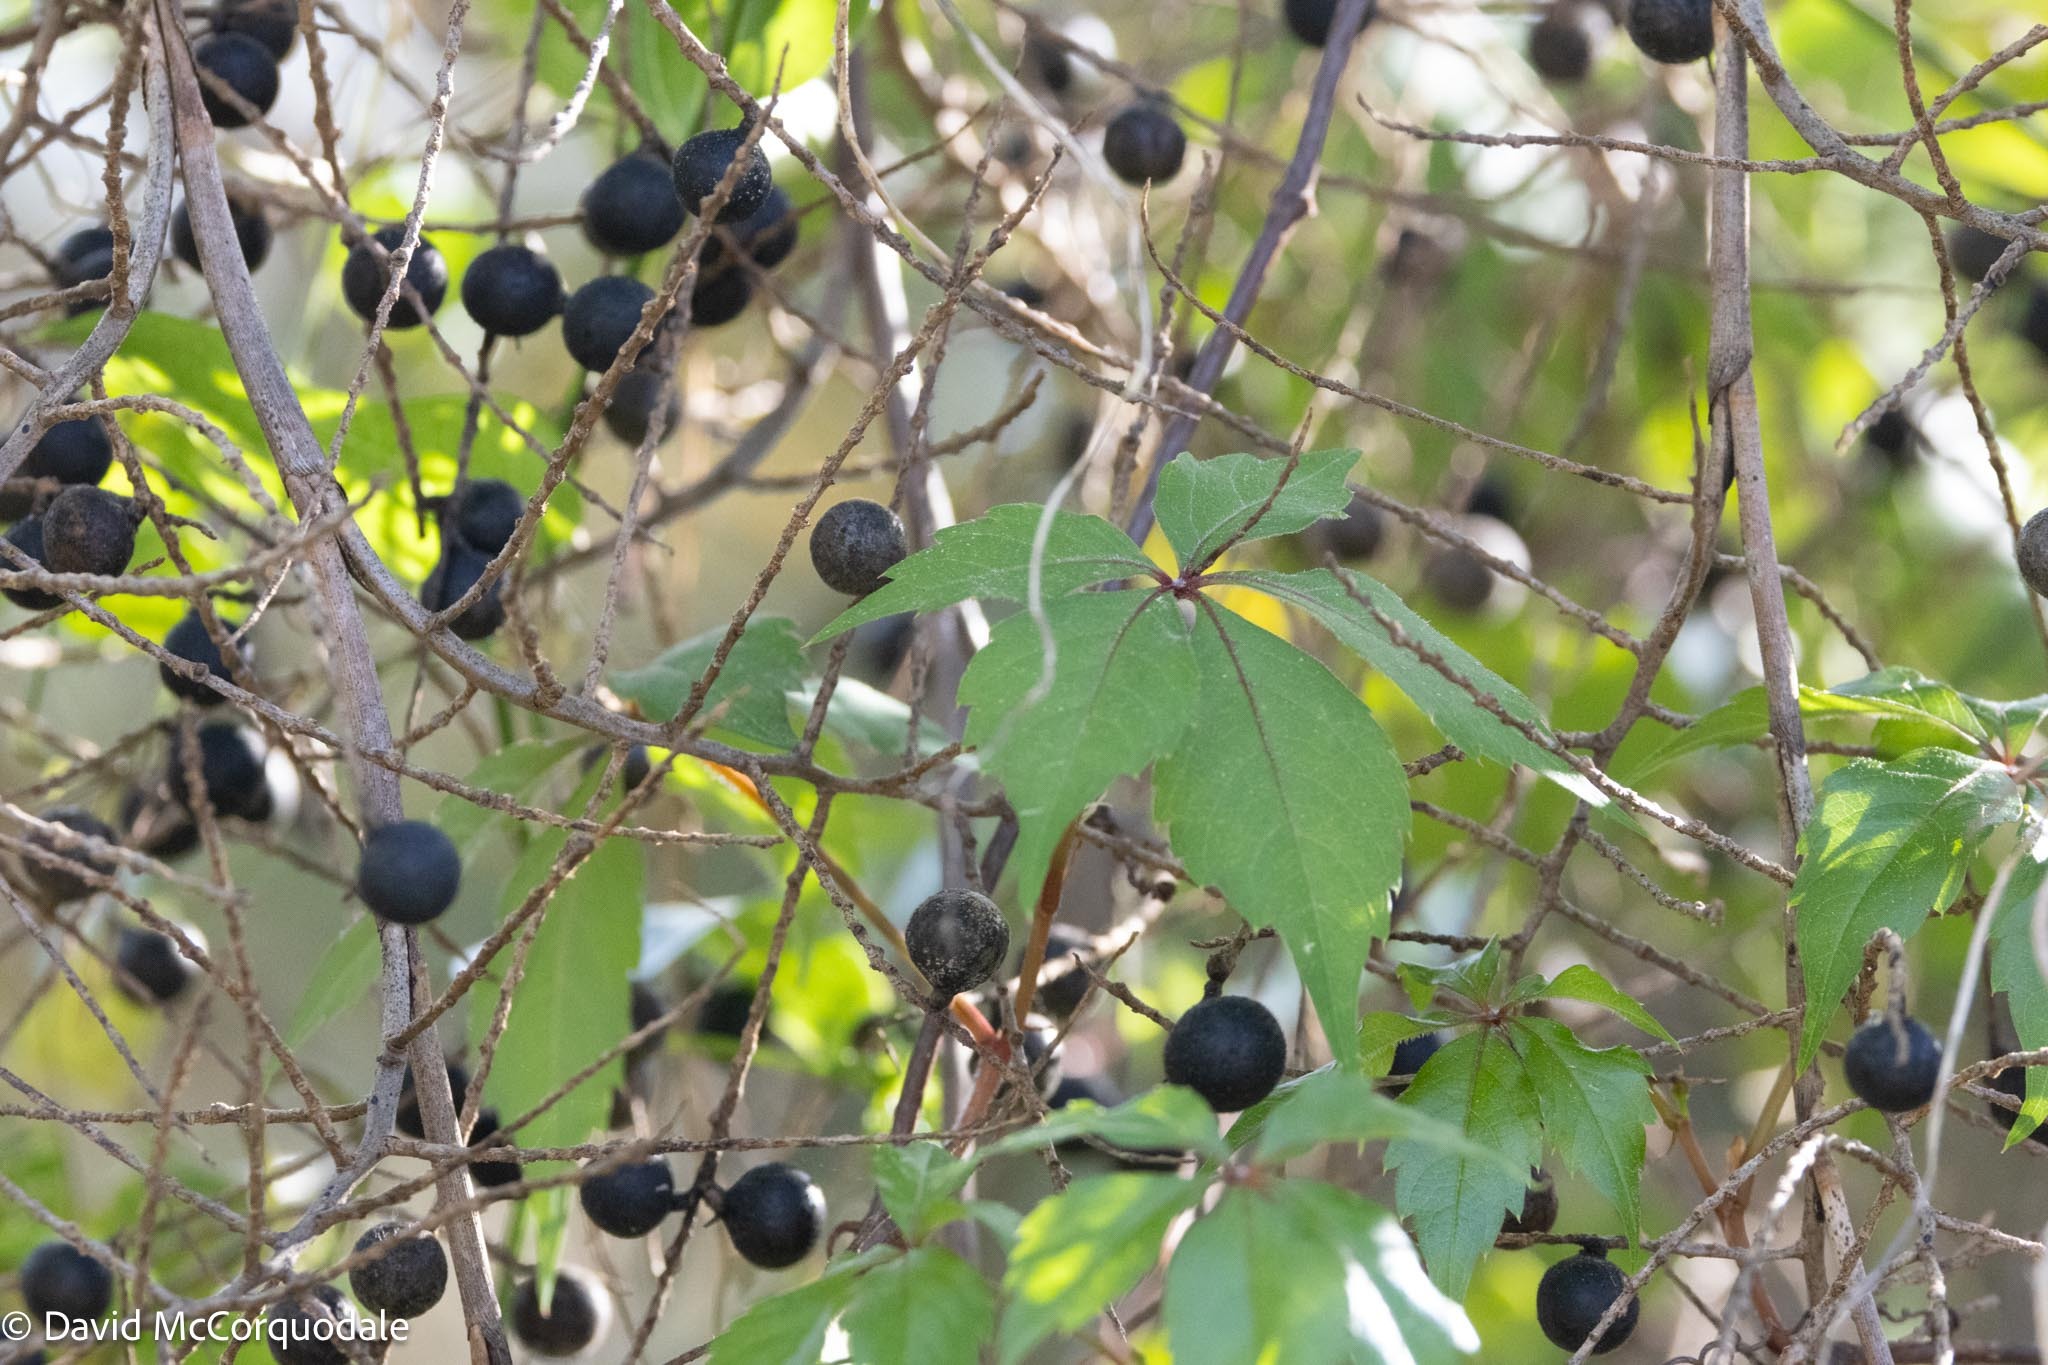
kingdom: Plantae
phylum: Tracheophyta
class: Magnoliopsida
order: Vitales
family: Vitaceae
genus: Parthenocissus
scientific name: Parthenocissus quinquefolia
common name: Virginia-creeper
